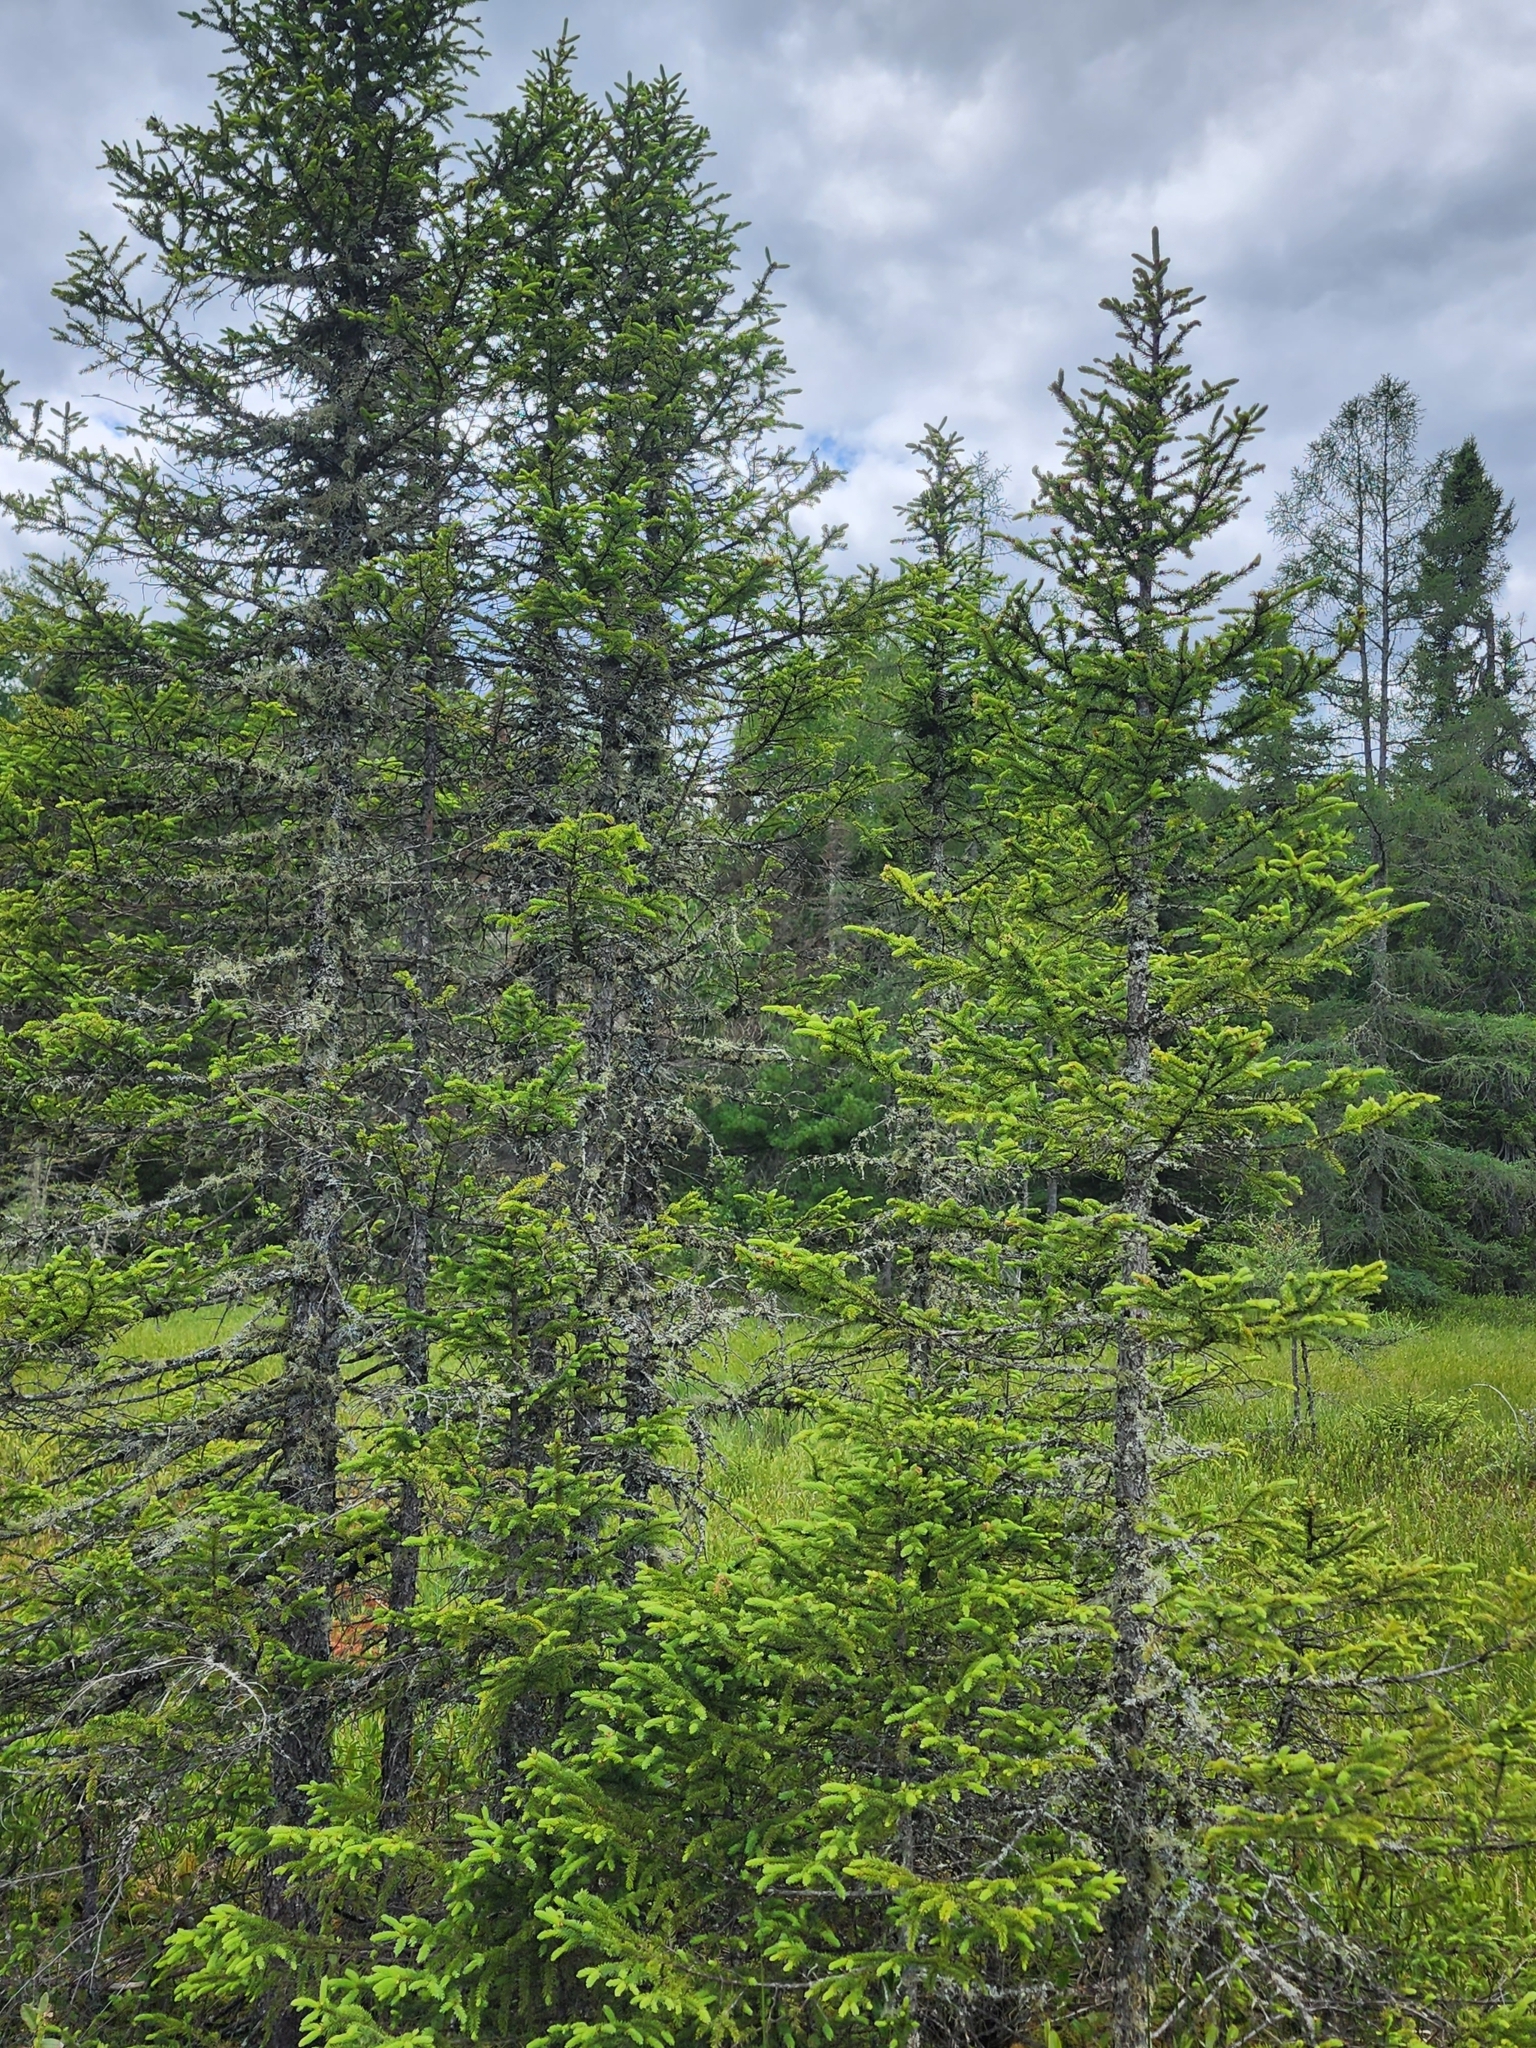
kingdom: Plantae
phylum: Tracheophyta
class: Pinopsida
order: Pinales
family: Pinaceae
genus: Picea
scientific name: Picea mariana
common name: Black spruce
